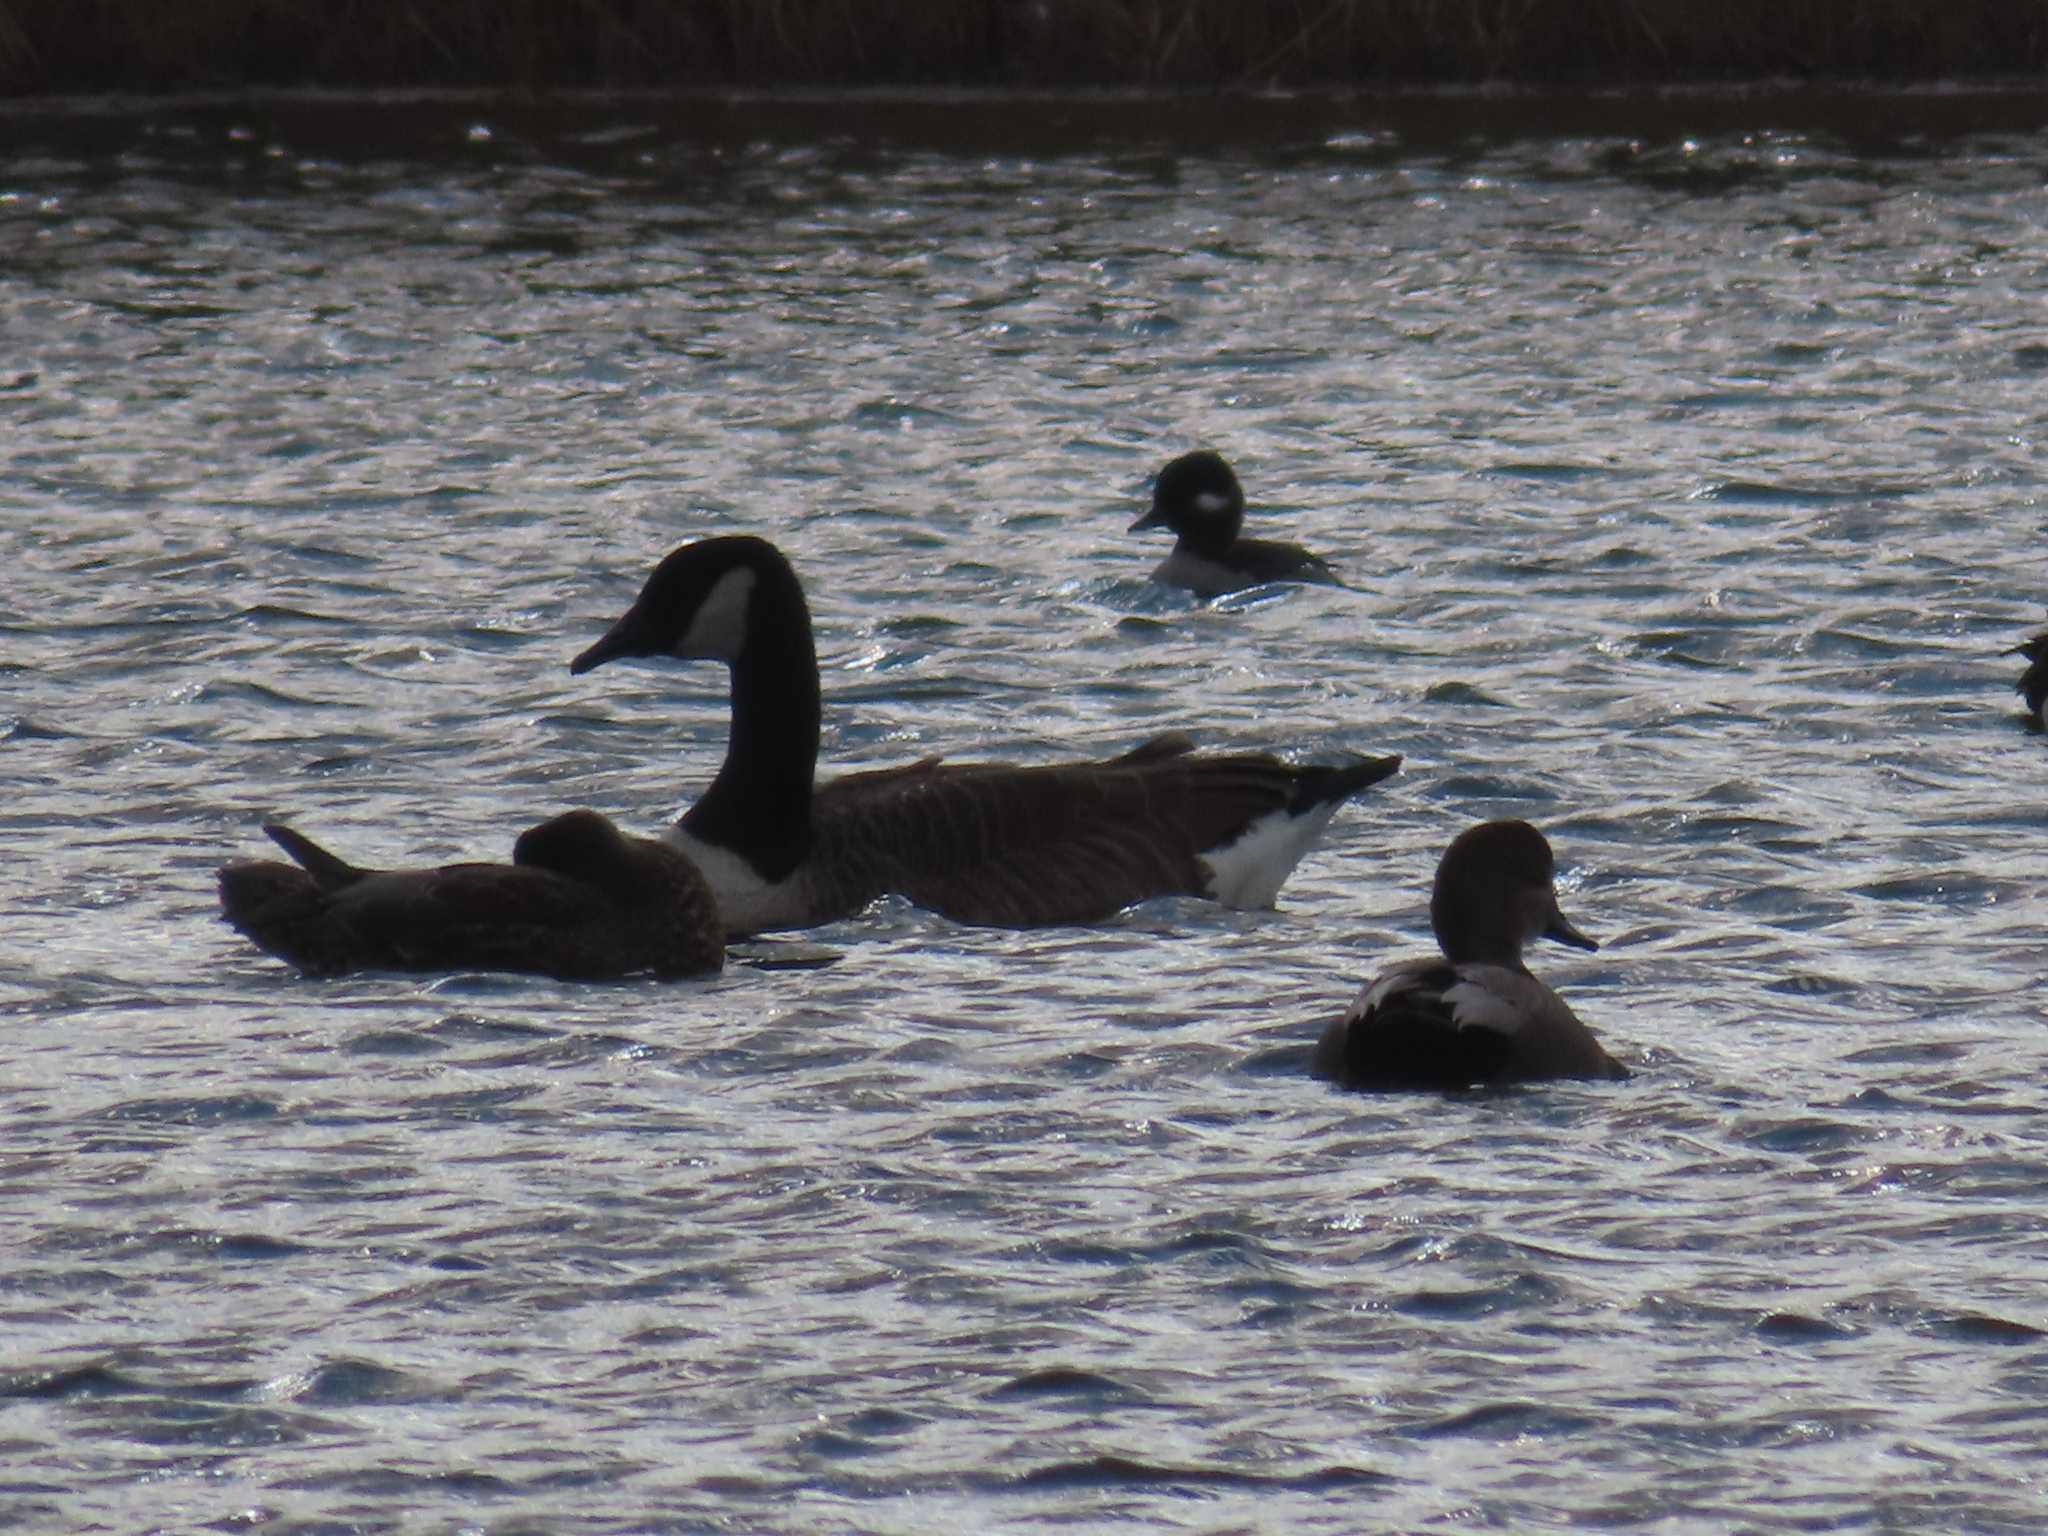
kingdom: Animalia
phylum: Chordata
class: Aves
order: Anseriformes
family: Anatidae
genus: Branta
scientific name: Branta canadensis
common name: Canada goose
